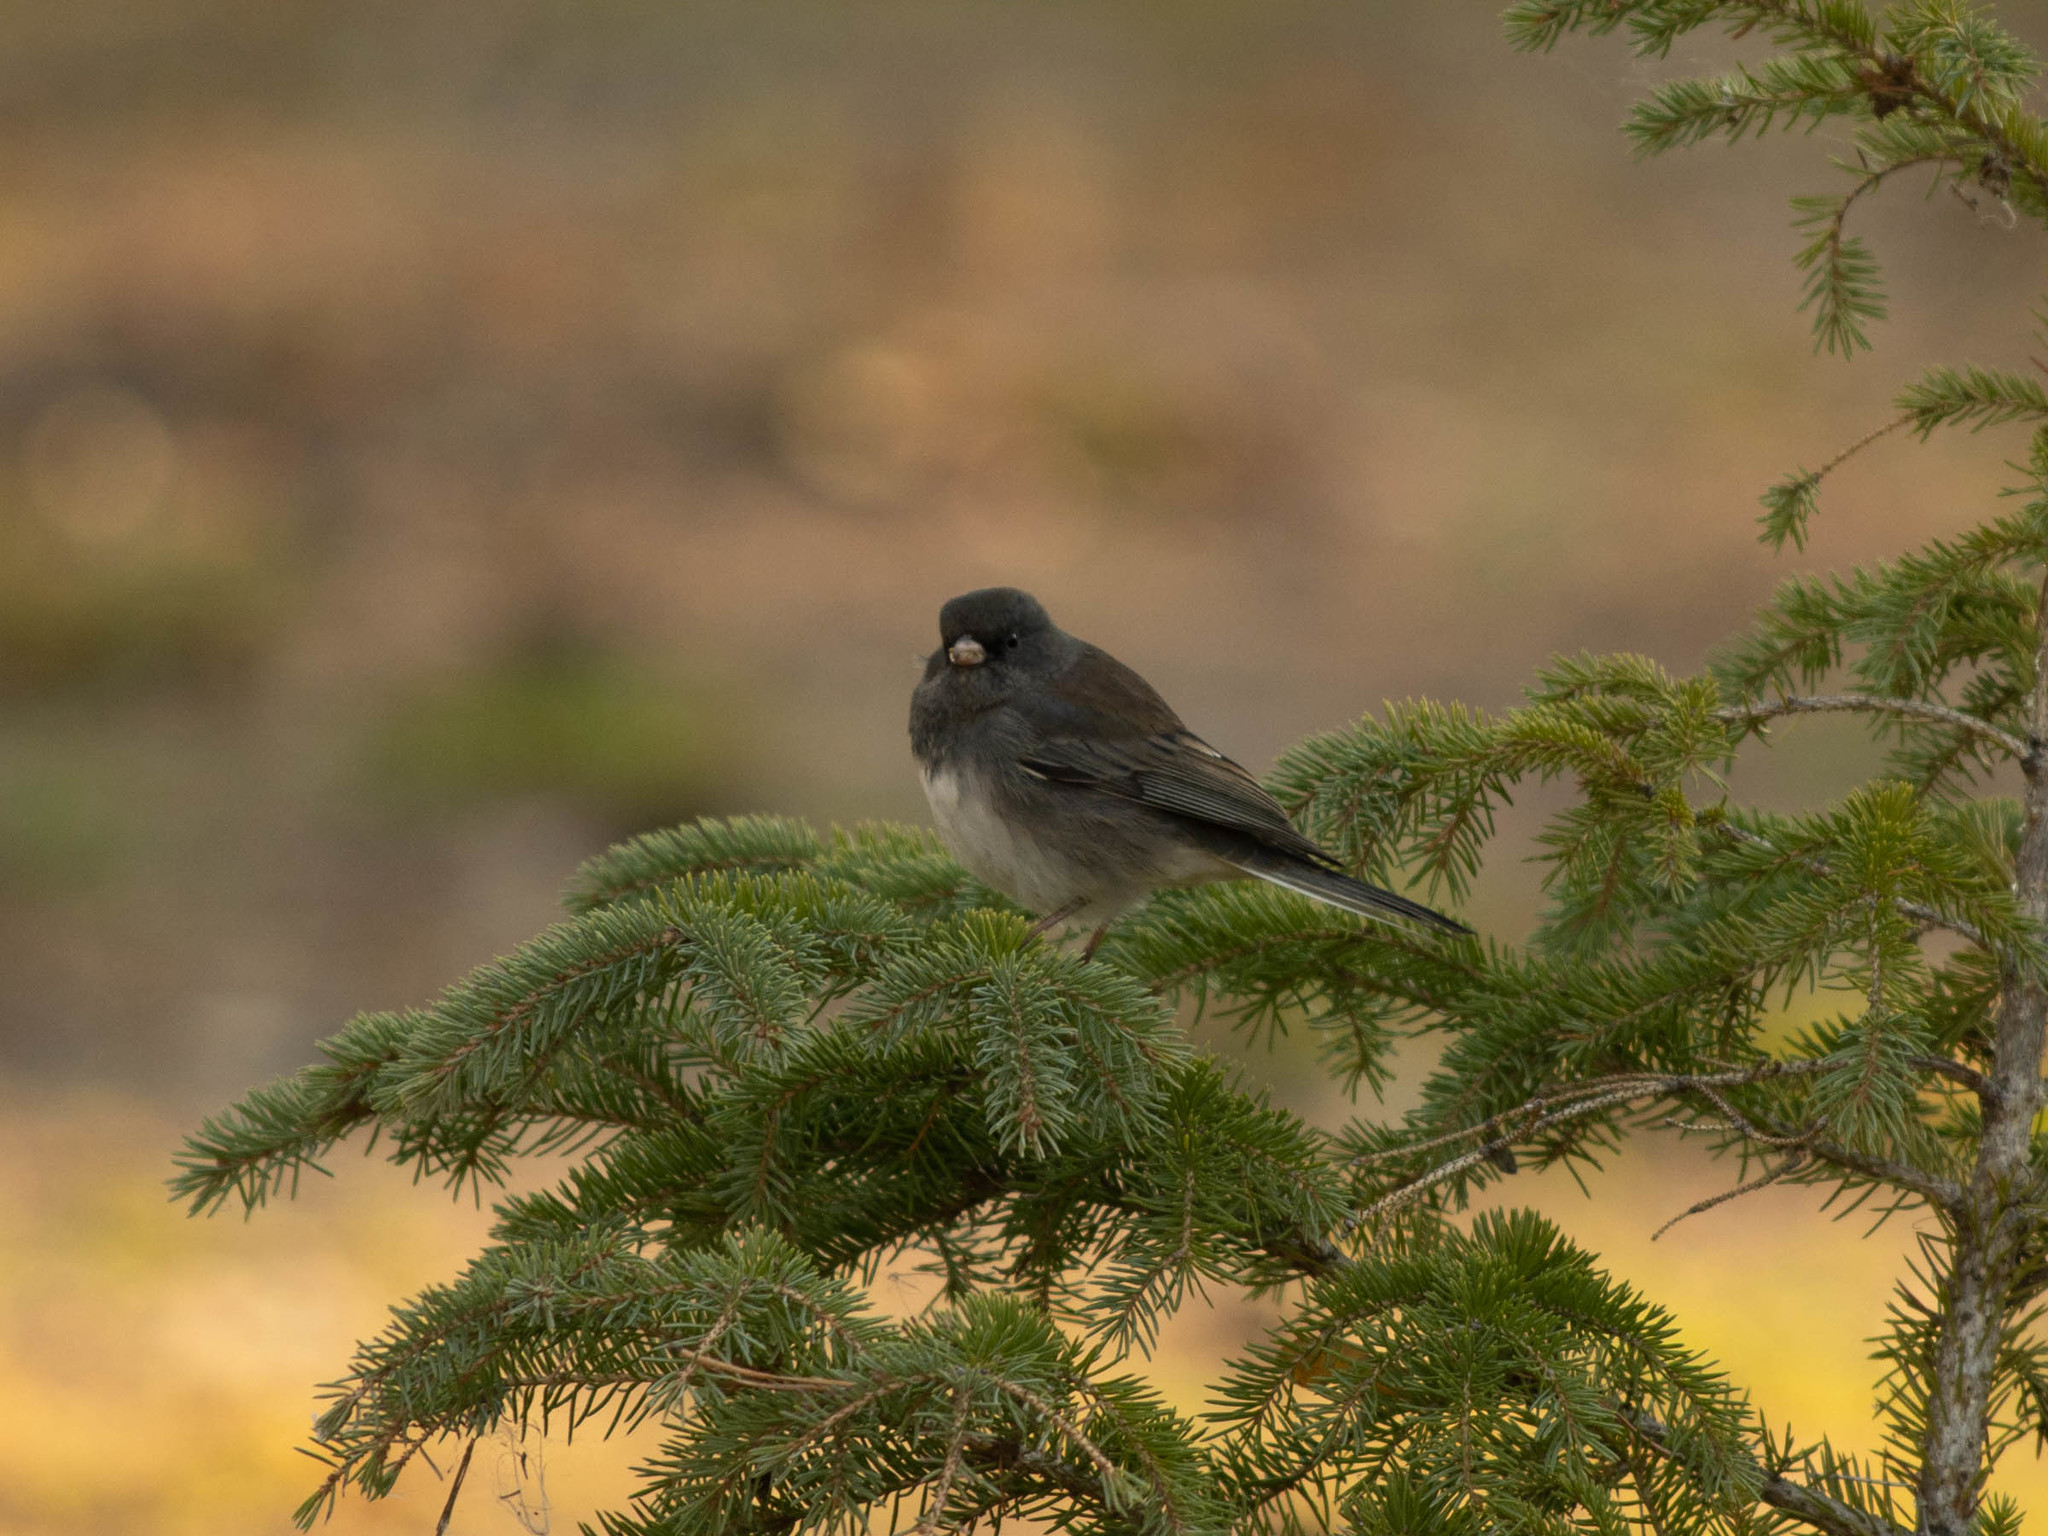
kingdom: Animalia
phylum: Chordata
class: Aves
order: Passeriformes
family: Passerellidae
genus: Junco
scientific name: Junco hyemalis
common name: Dark-eyed junco
